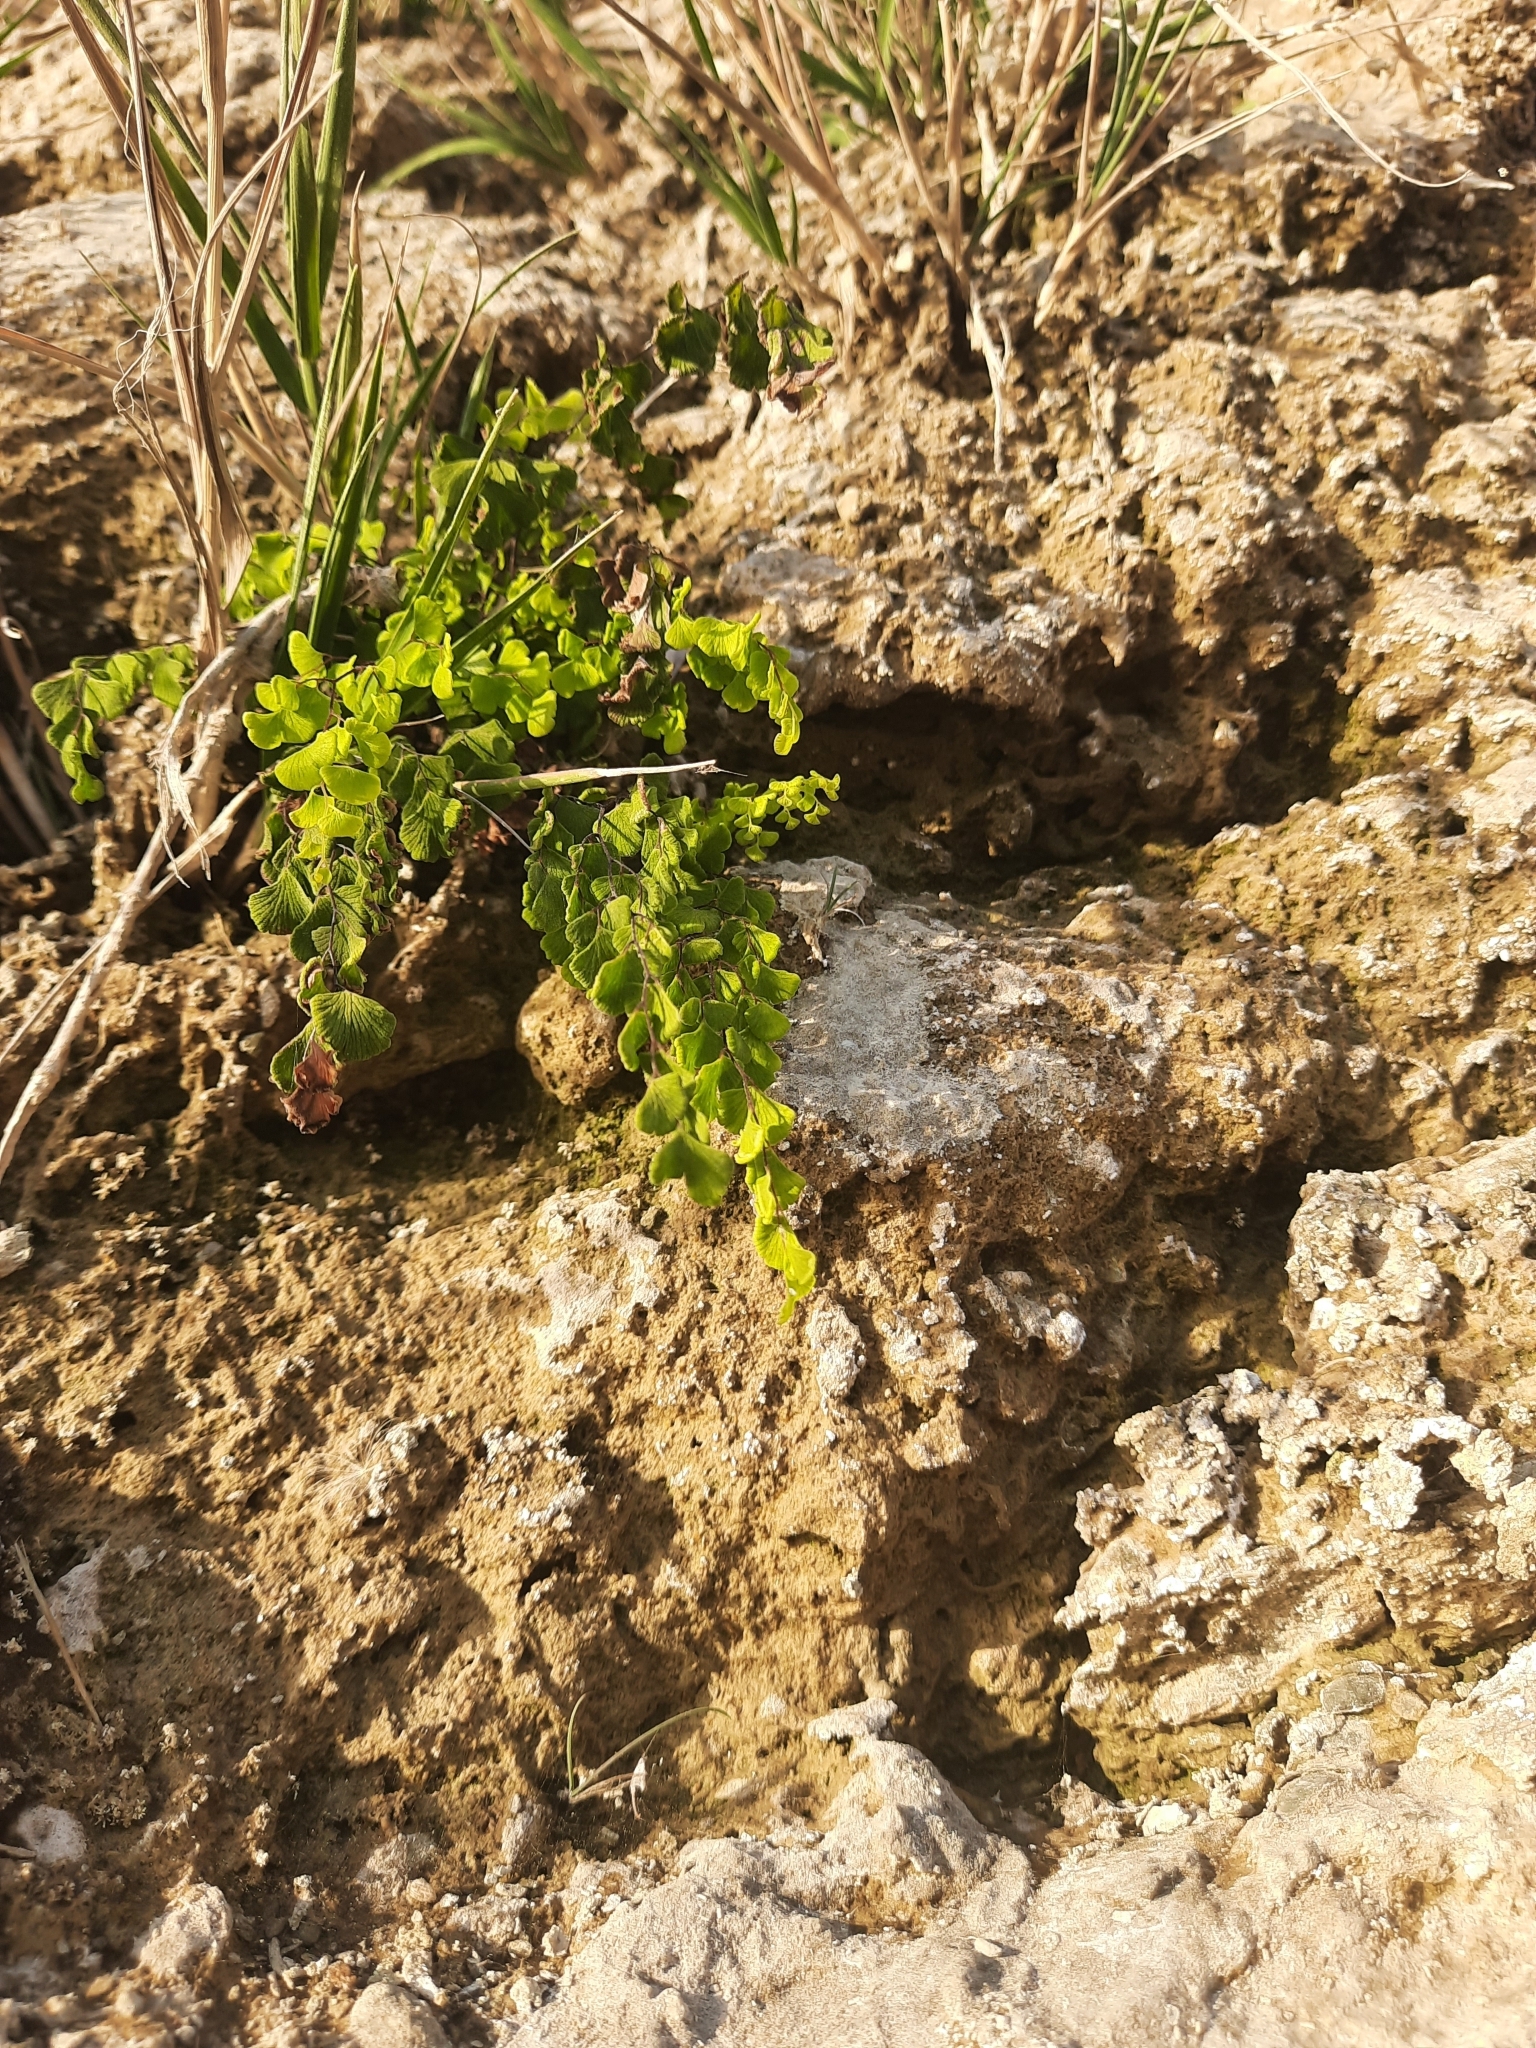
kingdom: Plantae
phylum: Tracheophyta
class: Polypodiopsida
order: Polypodiales
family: Pteridaceae
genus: Adiantum
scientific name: Adiantum capillus-veneris
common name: Maidenhair fern
